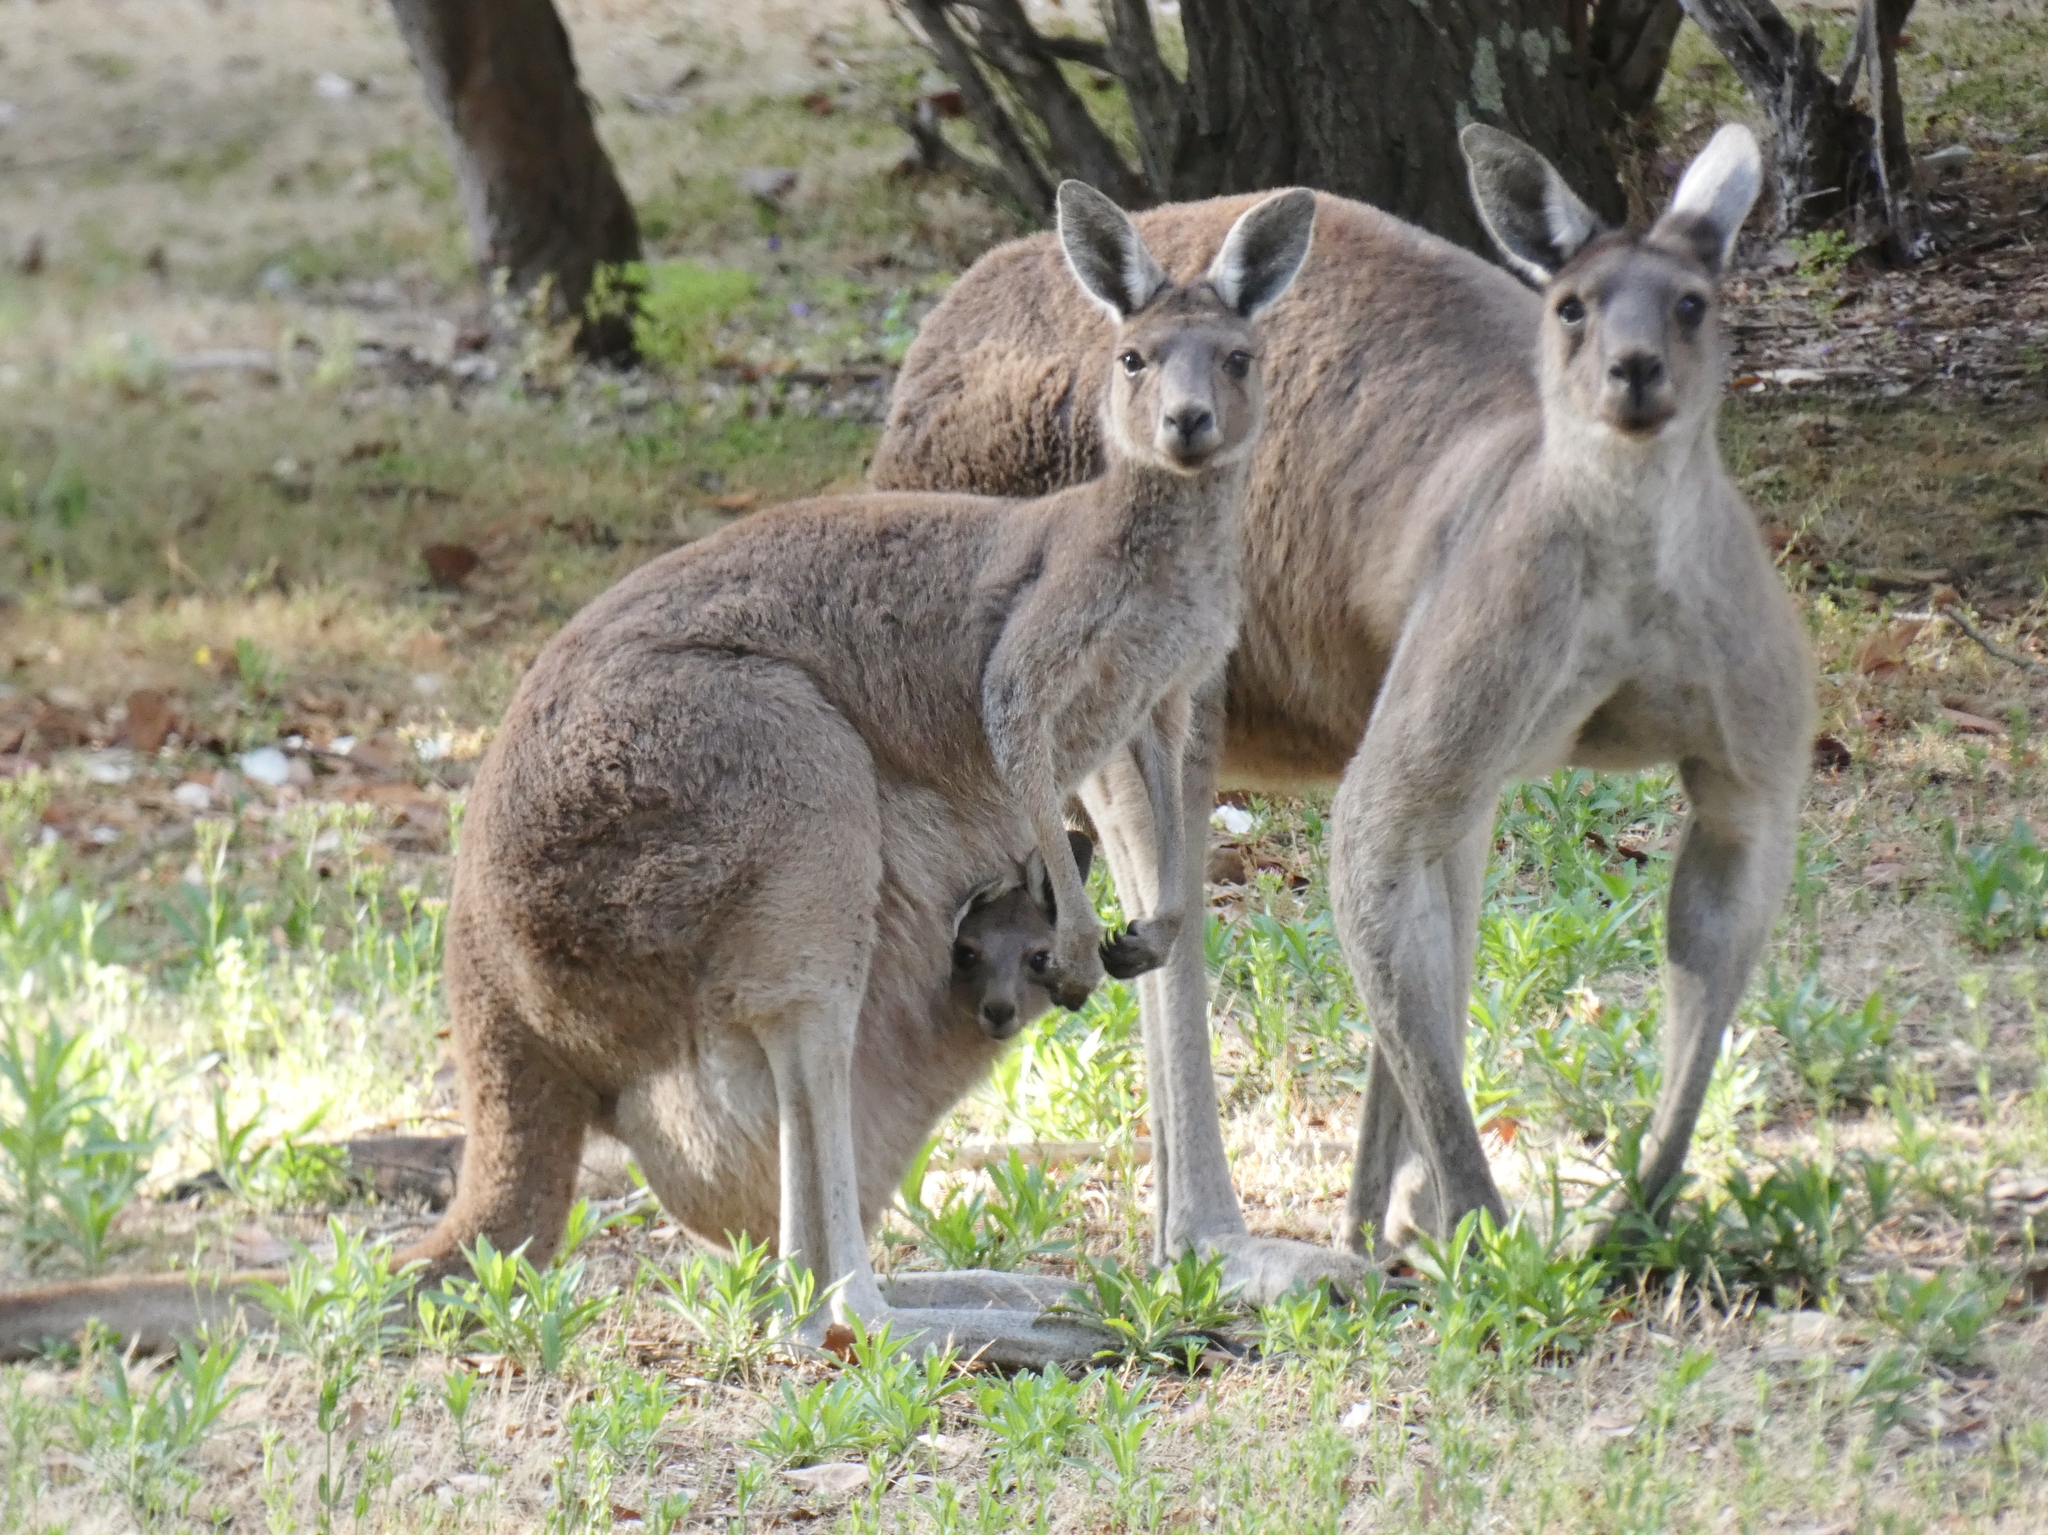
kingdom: Animalia
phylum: Chordata
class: Mammalia
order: Diprotodontia
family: Macropodidae
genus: Macropus
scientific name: Macropus fuliginosus
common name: Western grey kangaroo
